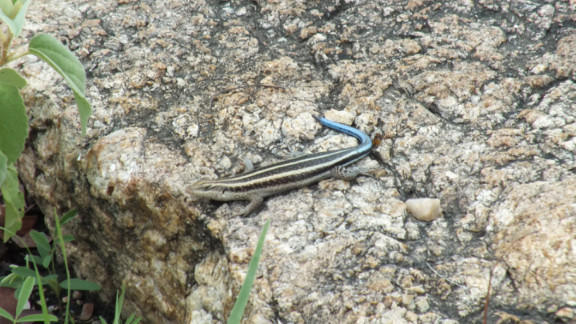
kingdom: Animalia
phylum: Chordata
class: Squamata
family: Scincidae
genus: Trachylepis
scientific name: Trachylepis margaritifera
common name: Rainbow skink
